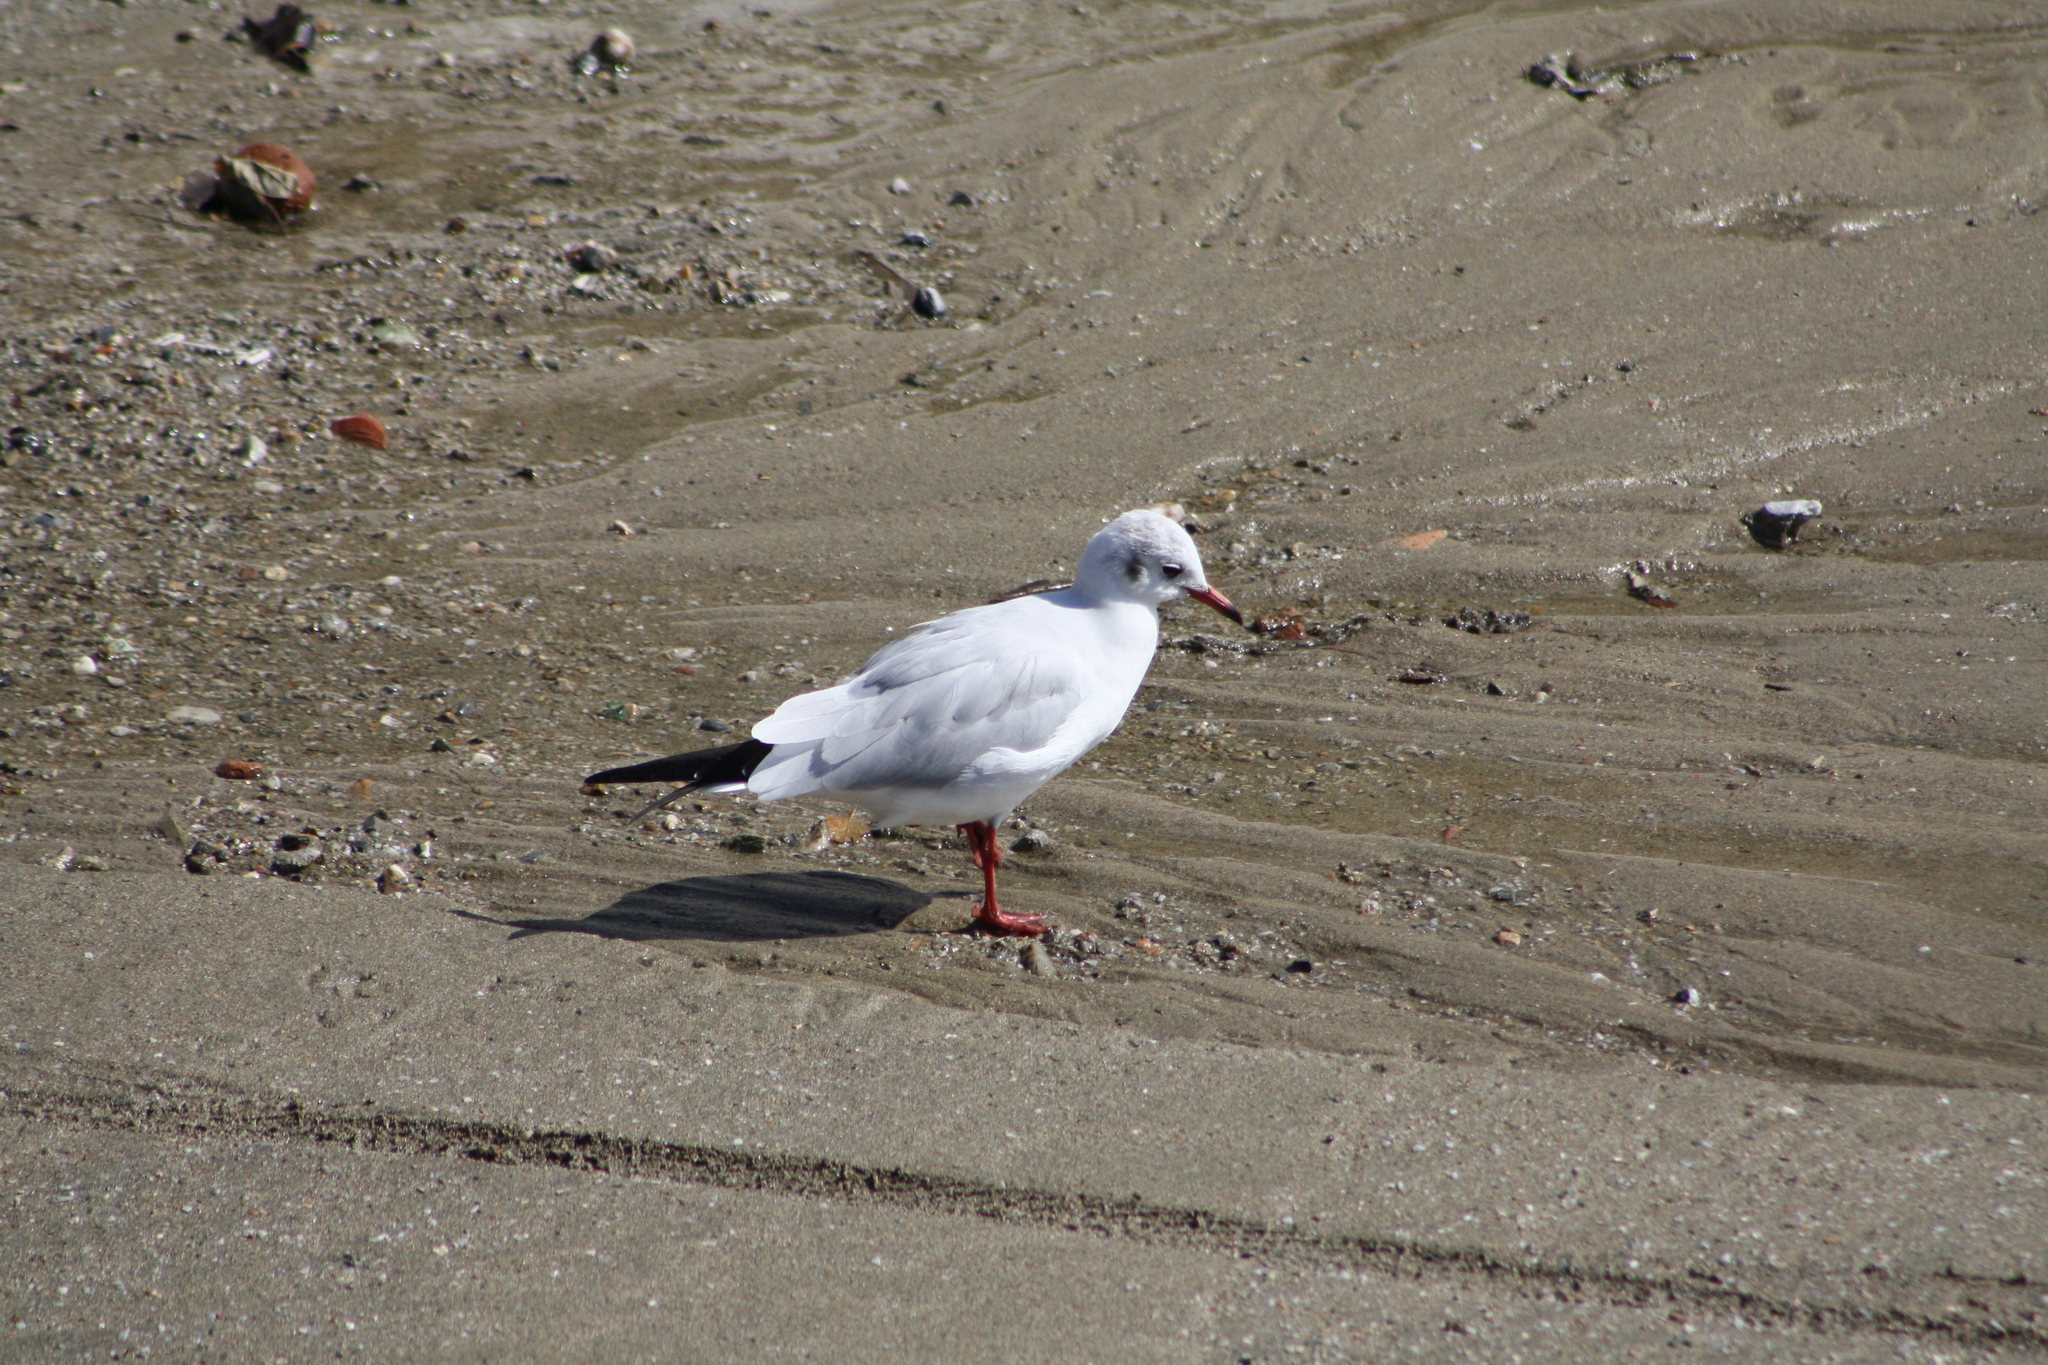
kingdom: Animalia
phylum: Chordata
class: Aves
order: Charadriiformes
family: Laridae
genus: Chroicocephalus
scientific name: Chroicocephalus ridibundus
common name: Black-headed gull
